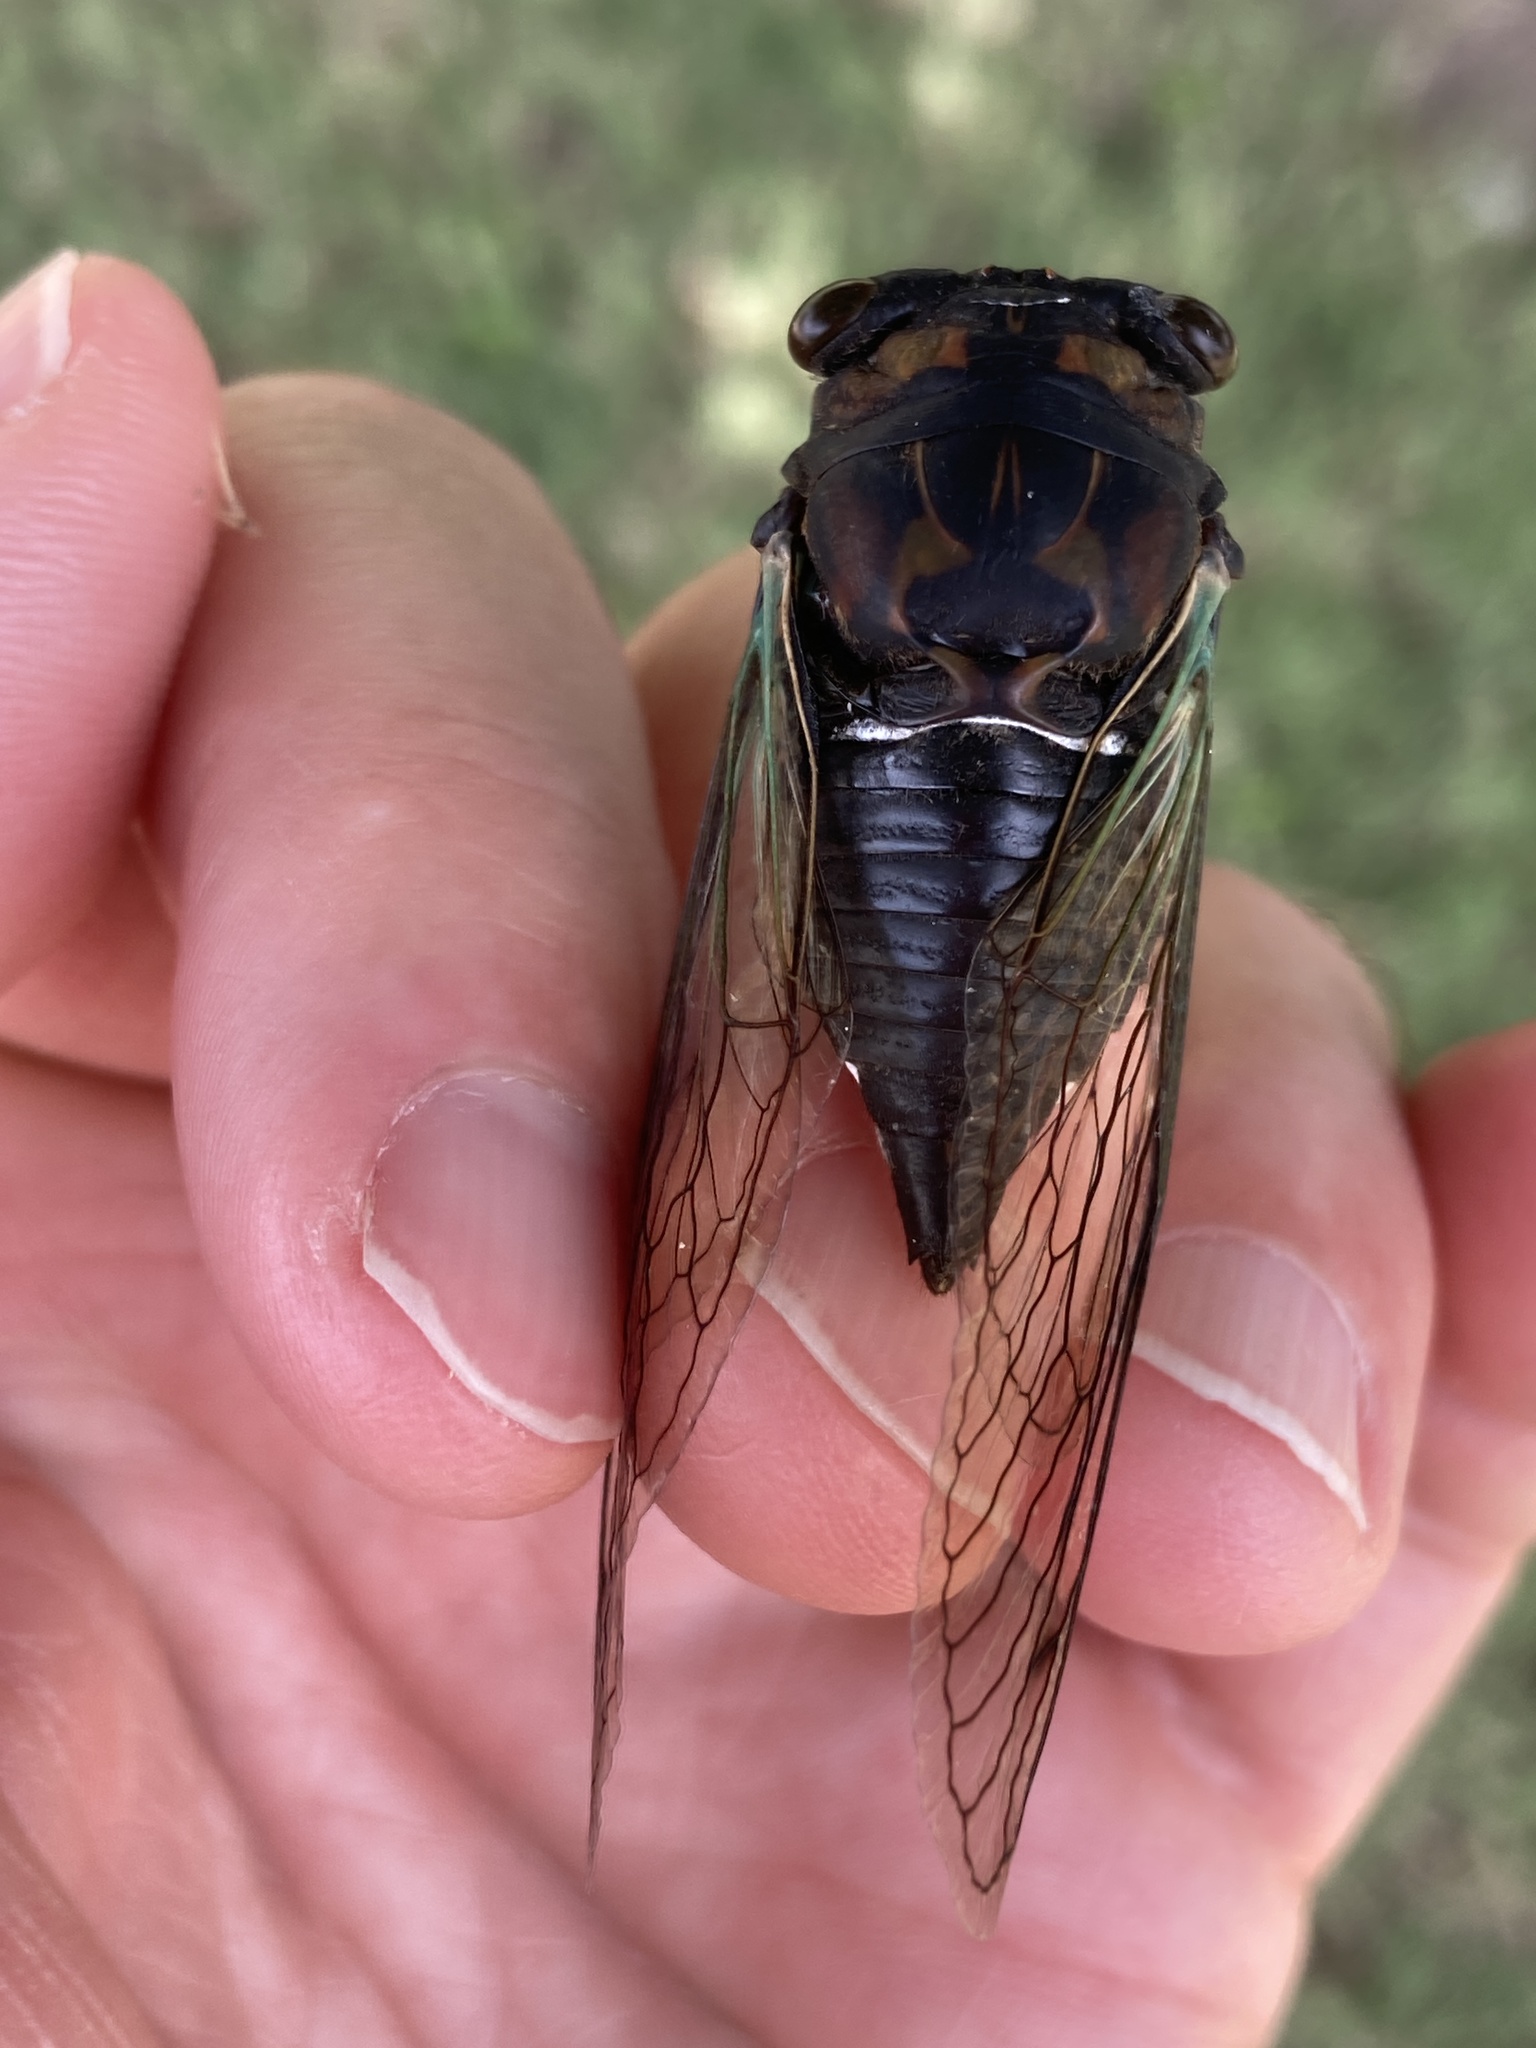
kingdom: Animalia
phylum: Arthropoda
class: Insecta
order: Hemiptera
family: Cicadidae
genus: Neotibicen
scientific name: Neotibicen lyricen
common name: Lyric cicada
